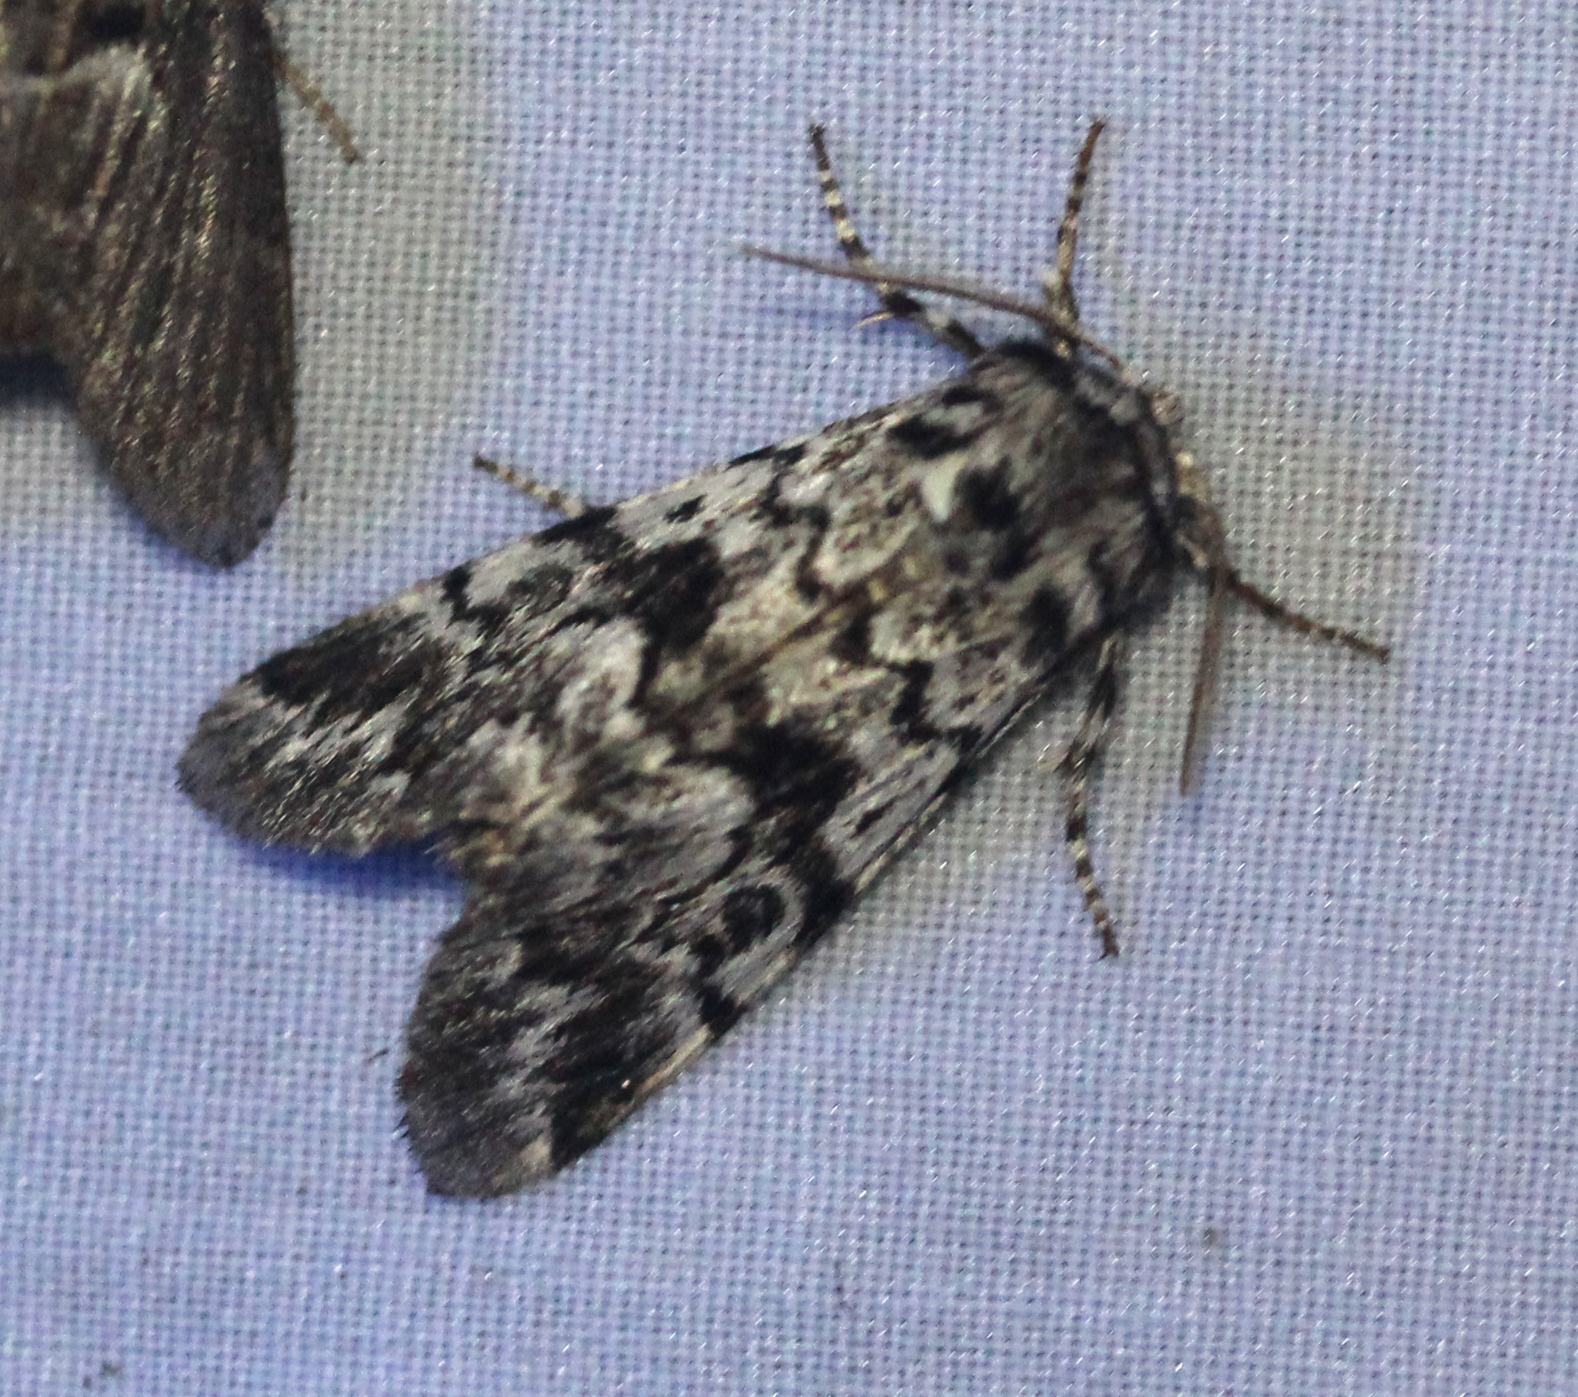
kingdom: Animalia
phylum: Arthropoda
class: Insecta
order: Lepidoptera
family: Noctuidae
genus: Panthea
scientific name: Panthea acronyctoides
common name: Black zigzag moth
